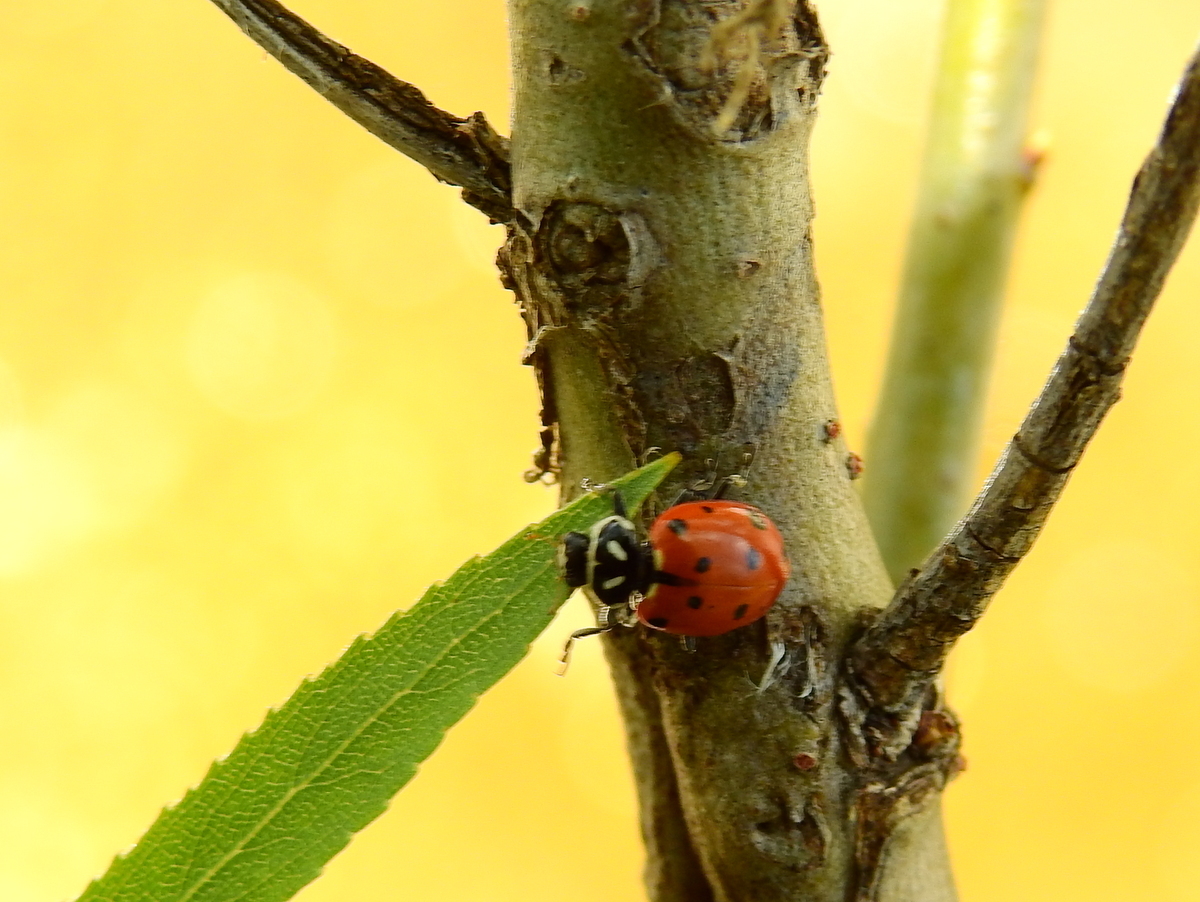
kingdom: Animalia
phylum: Arthropoda
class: Insecta
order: Coleoptera
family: Coccinellidae
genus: Hippodamia
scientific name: Hippodamia convergens
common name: Convergent lady beetle
